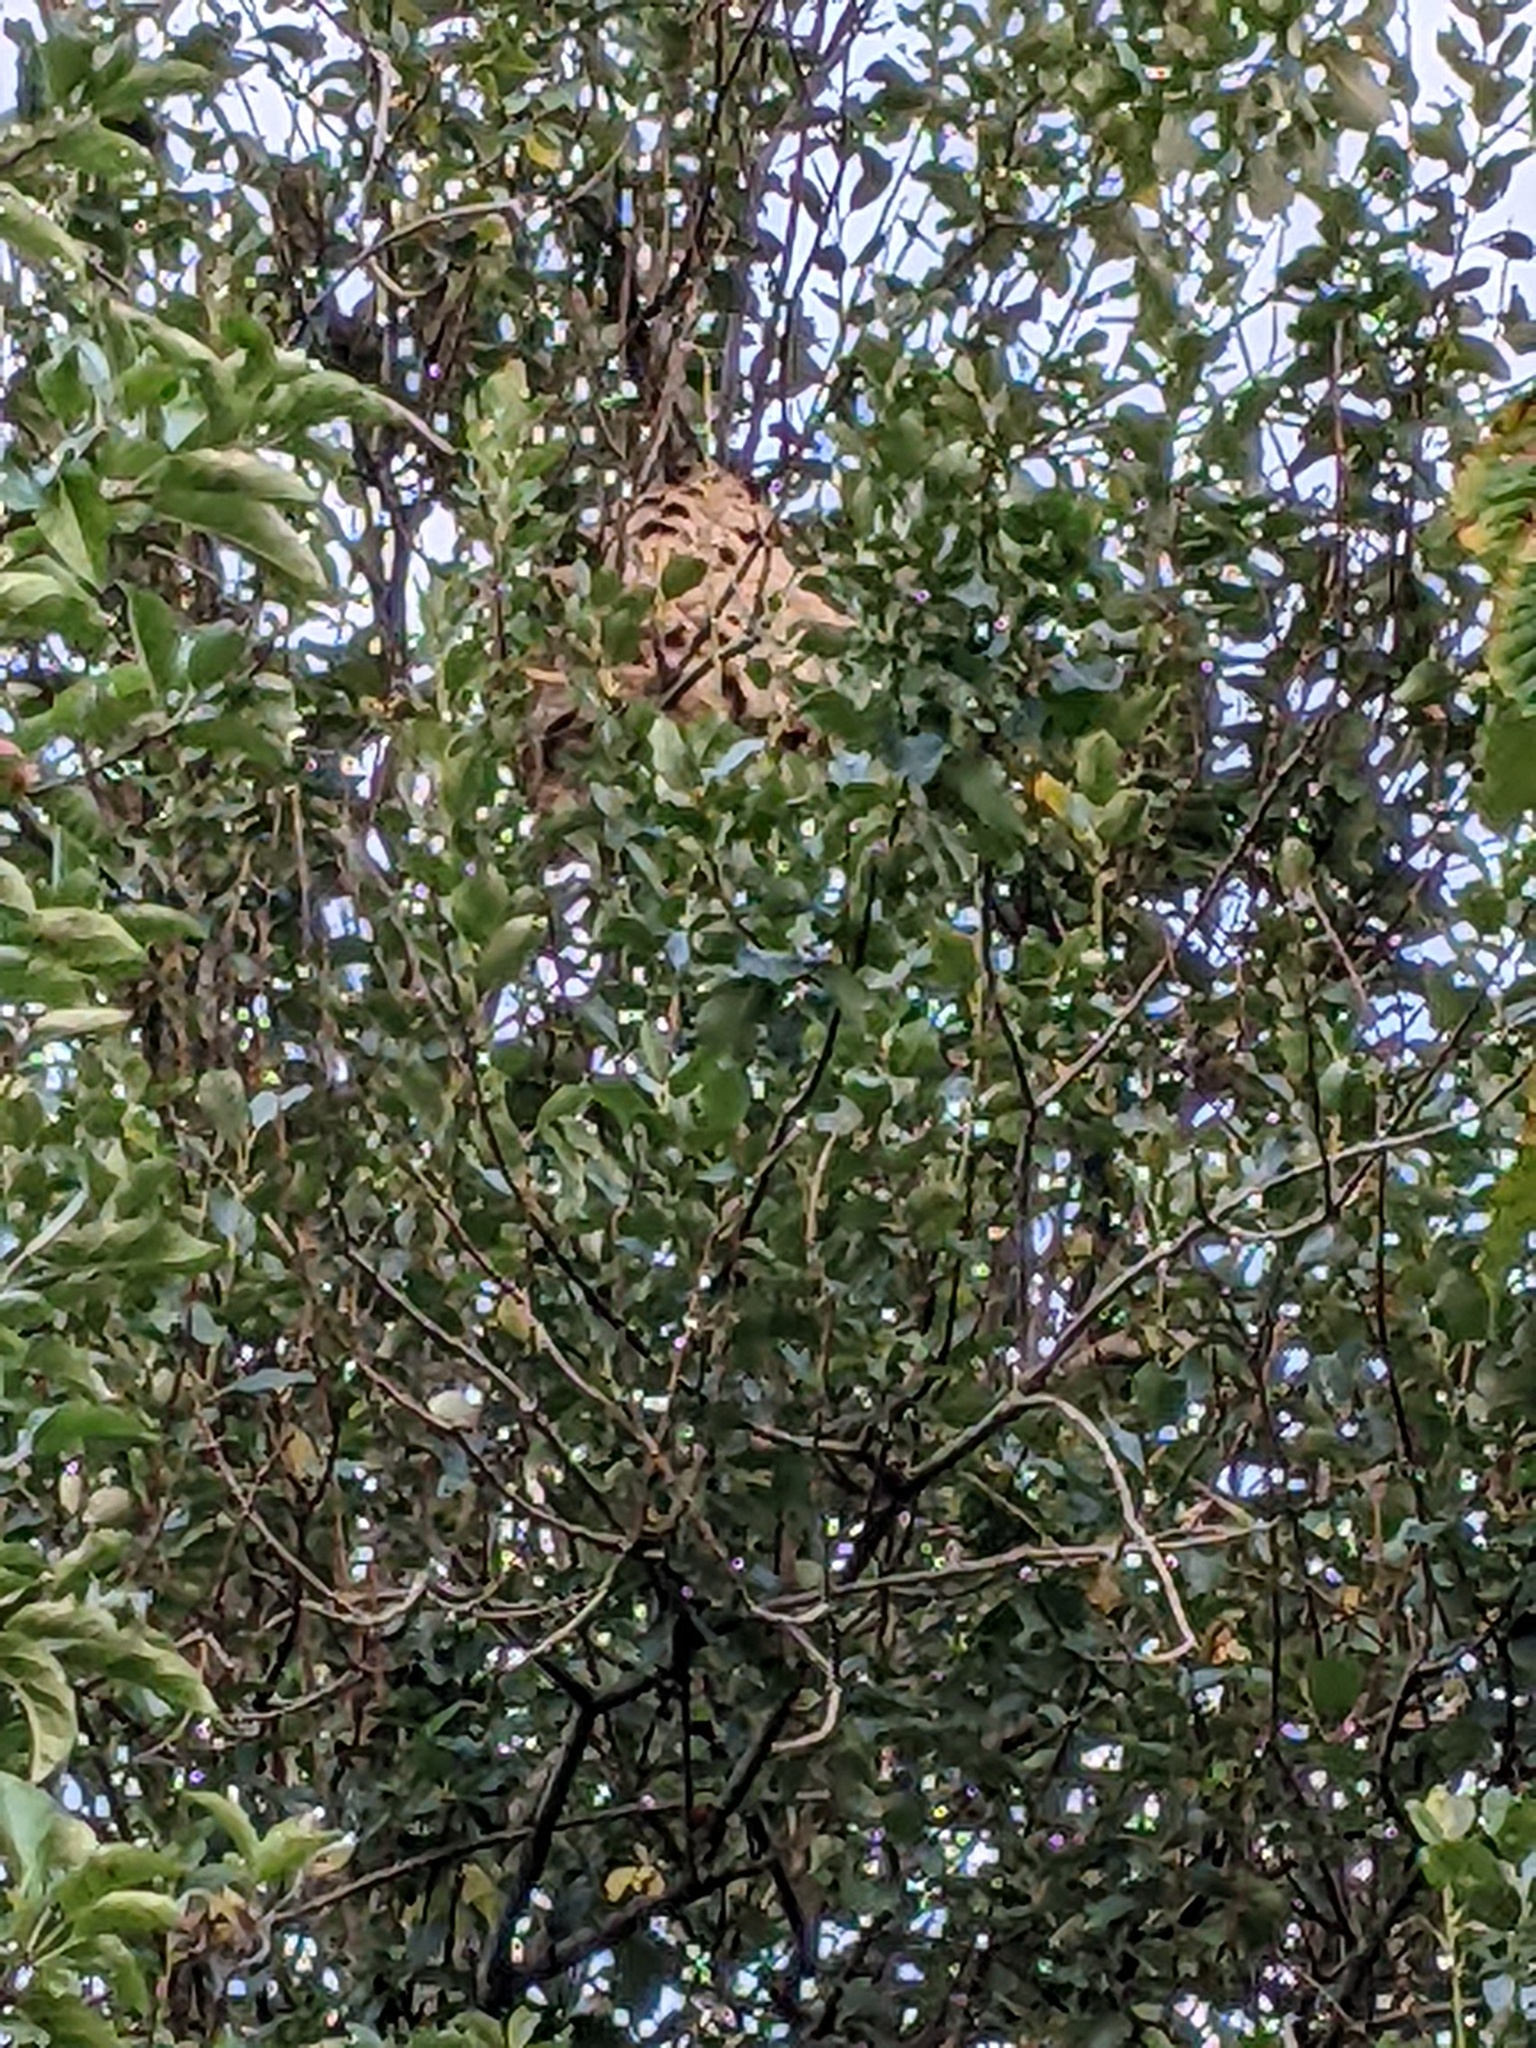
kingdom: Animalia
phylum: Arthropoda
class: Insecta
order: Hymenoptera
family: Vespidae
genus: Vespa
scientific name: Vespa velutina
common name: Asian hornet
